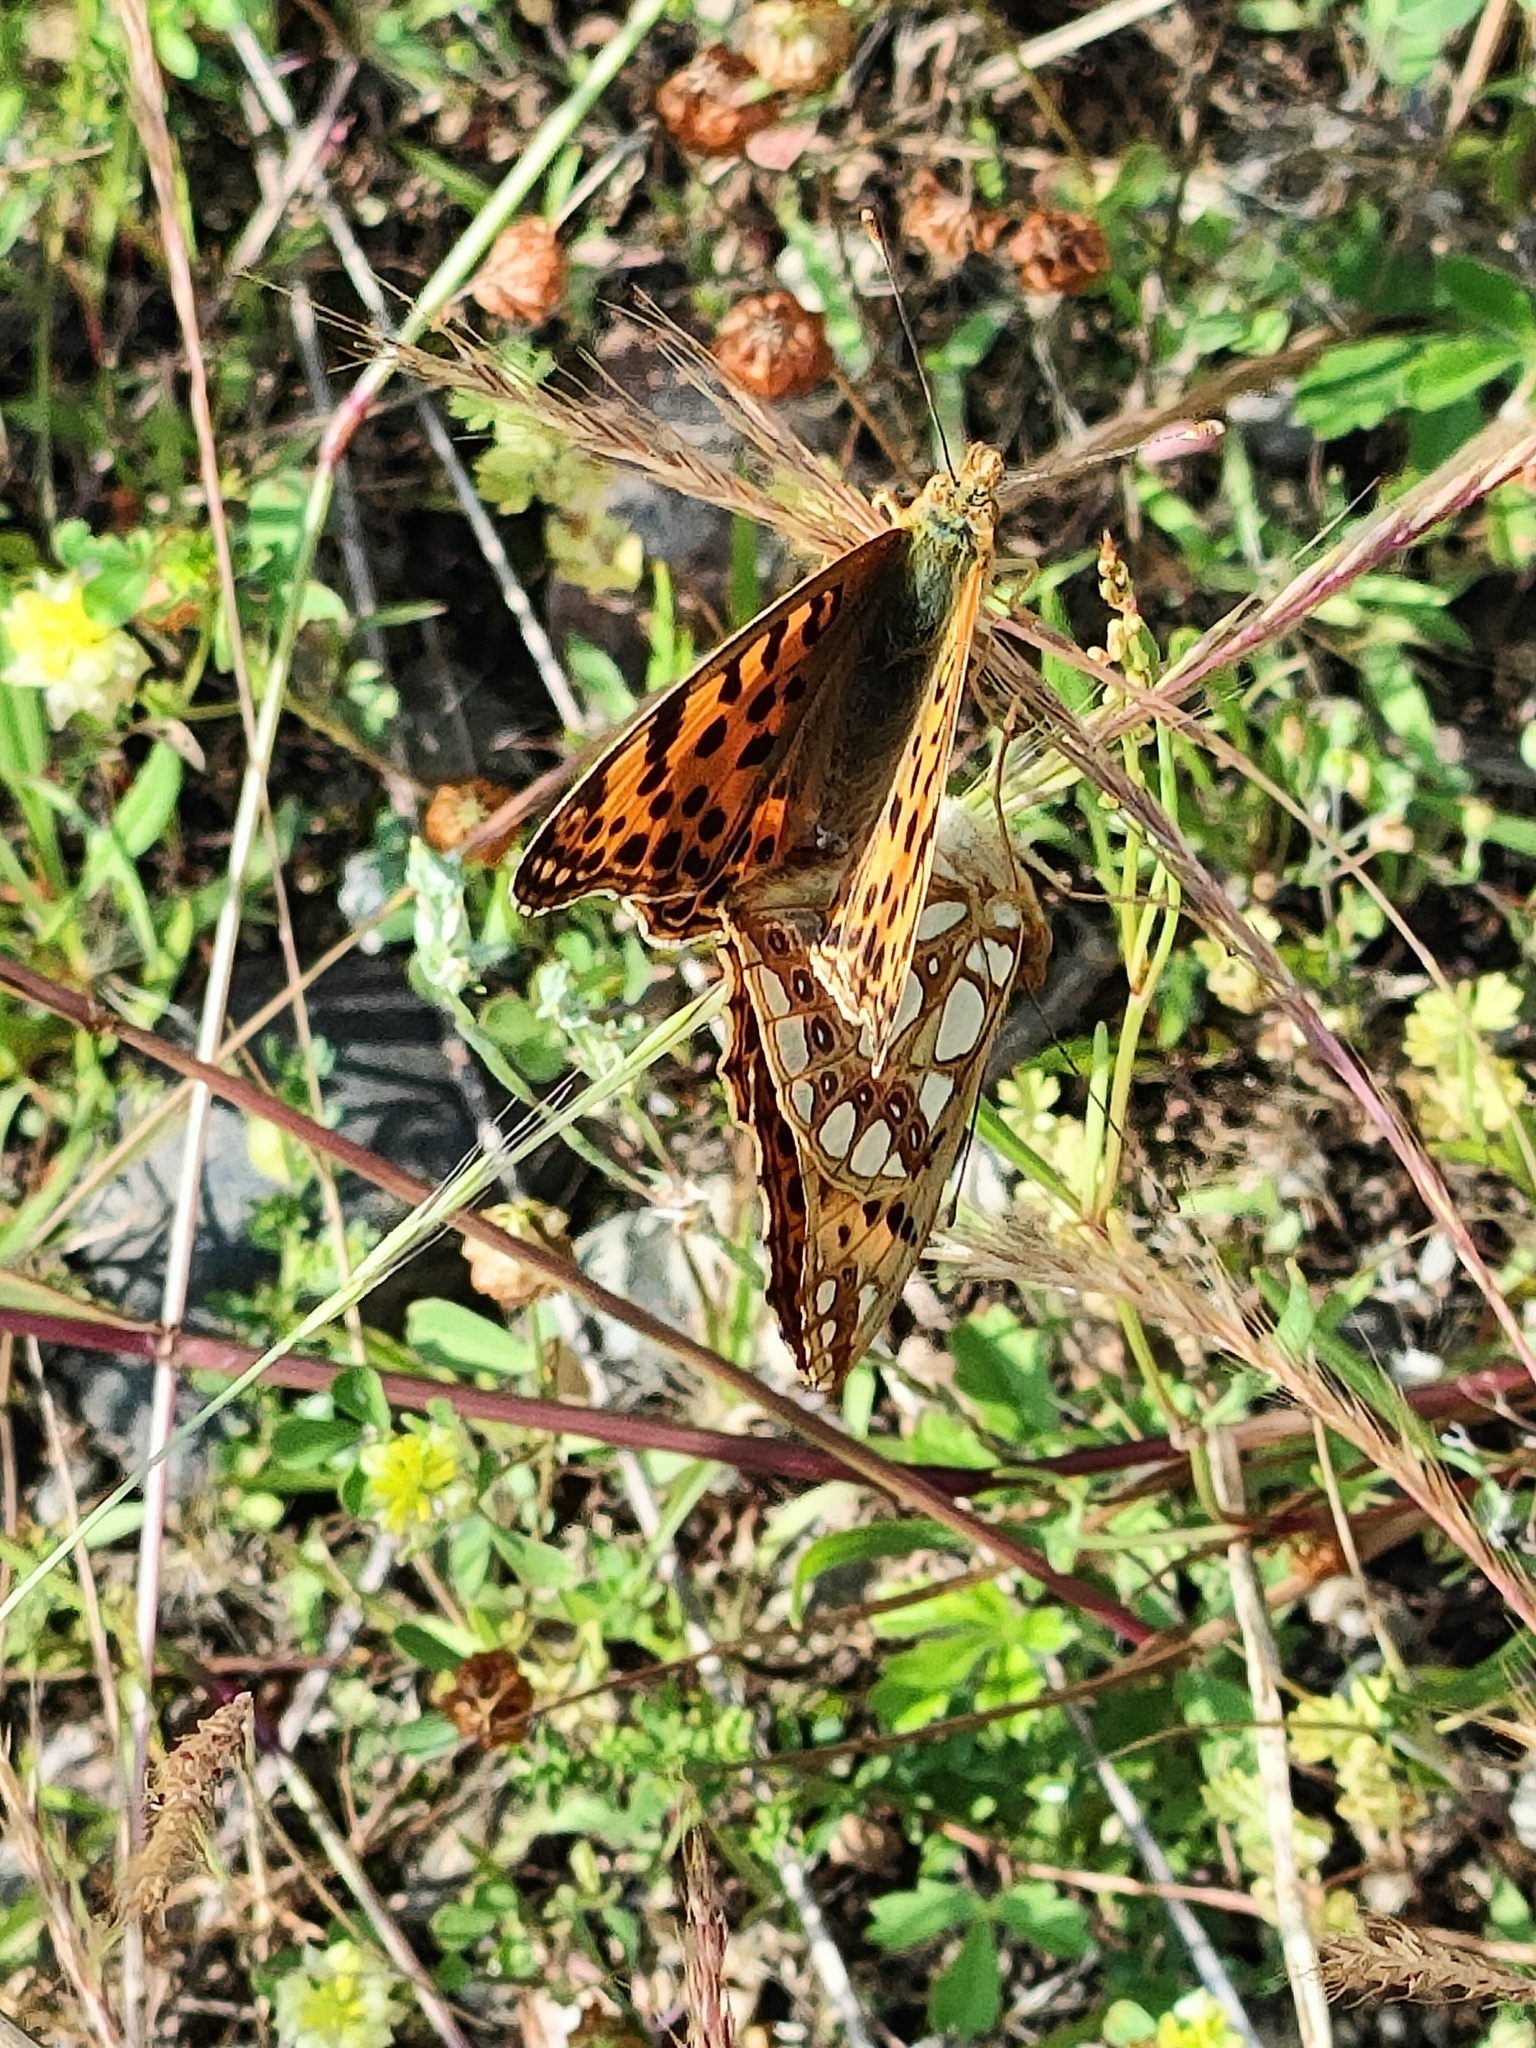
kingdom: Animalia
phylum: Arthropoda
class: Insecta
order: Lepidoptera
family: Nymphalidae
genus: Issoria
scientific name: Issoria lathonia
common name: Queen of spain fritillary
